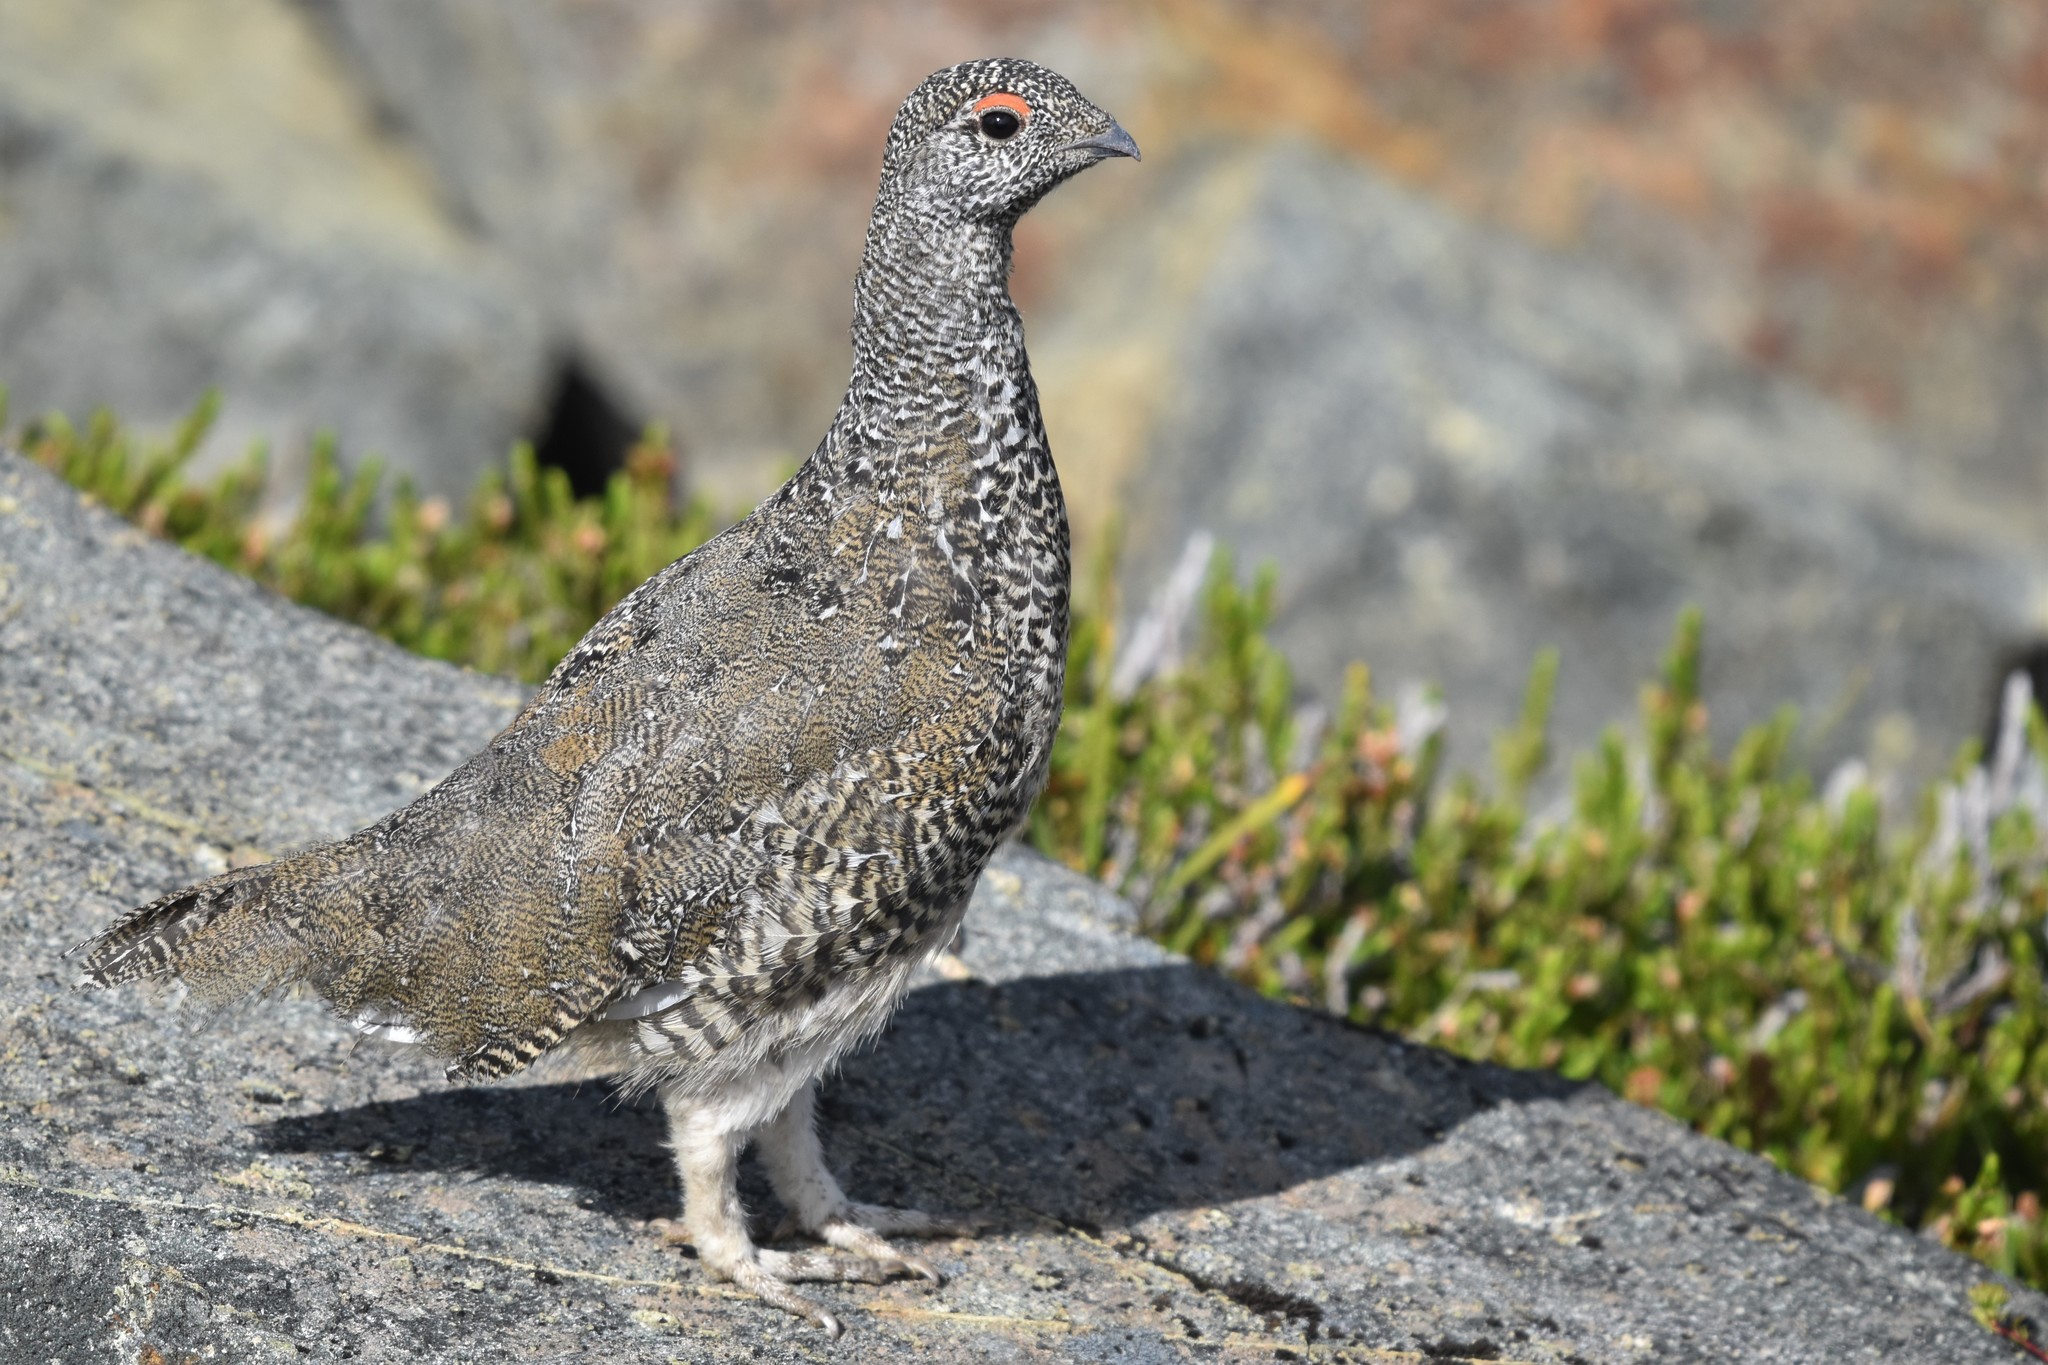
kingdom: Animalia
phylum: Chordata
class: Aves
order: Galliformes
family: Phasianidae
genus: Lagopus
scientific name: Lagopus leucura
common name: White-tailed ptarmigan
